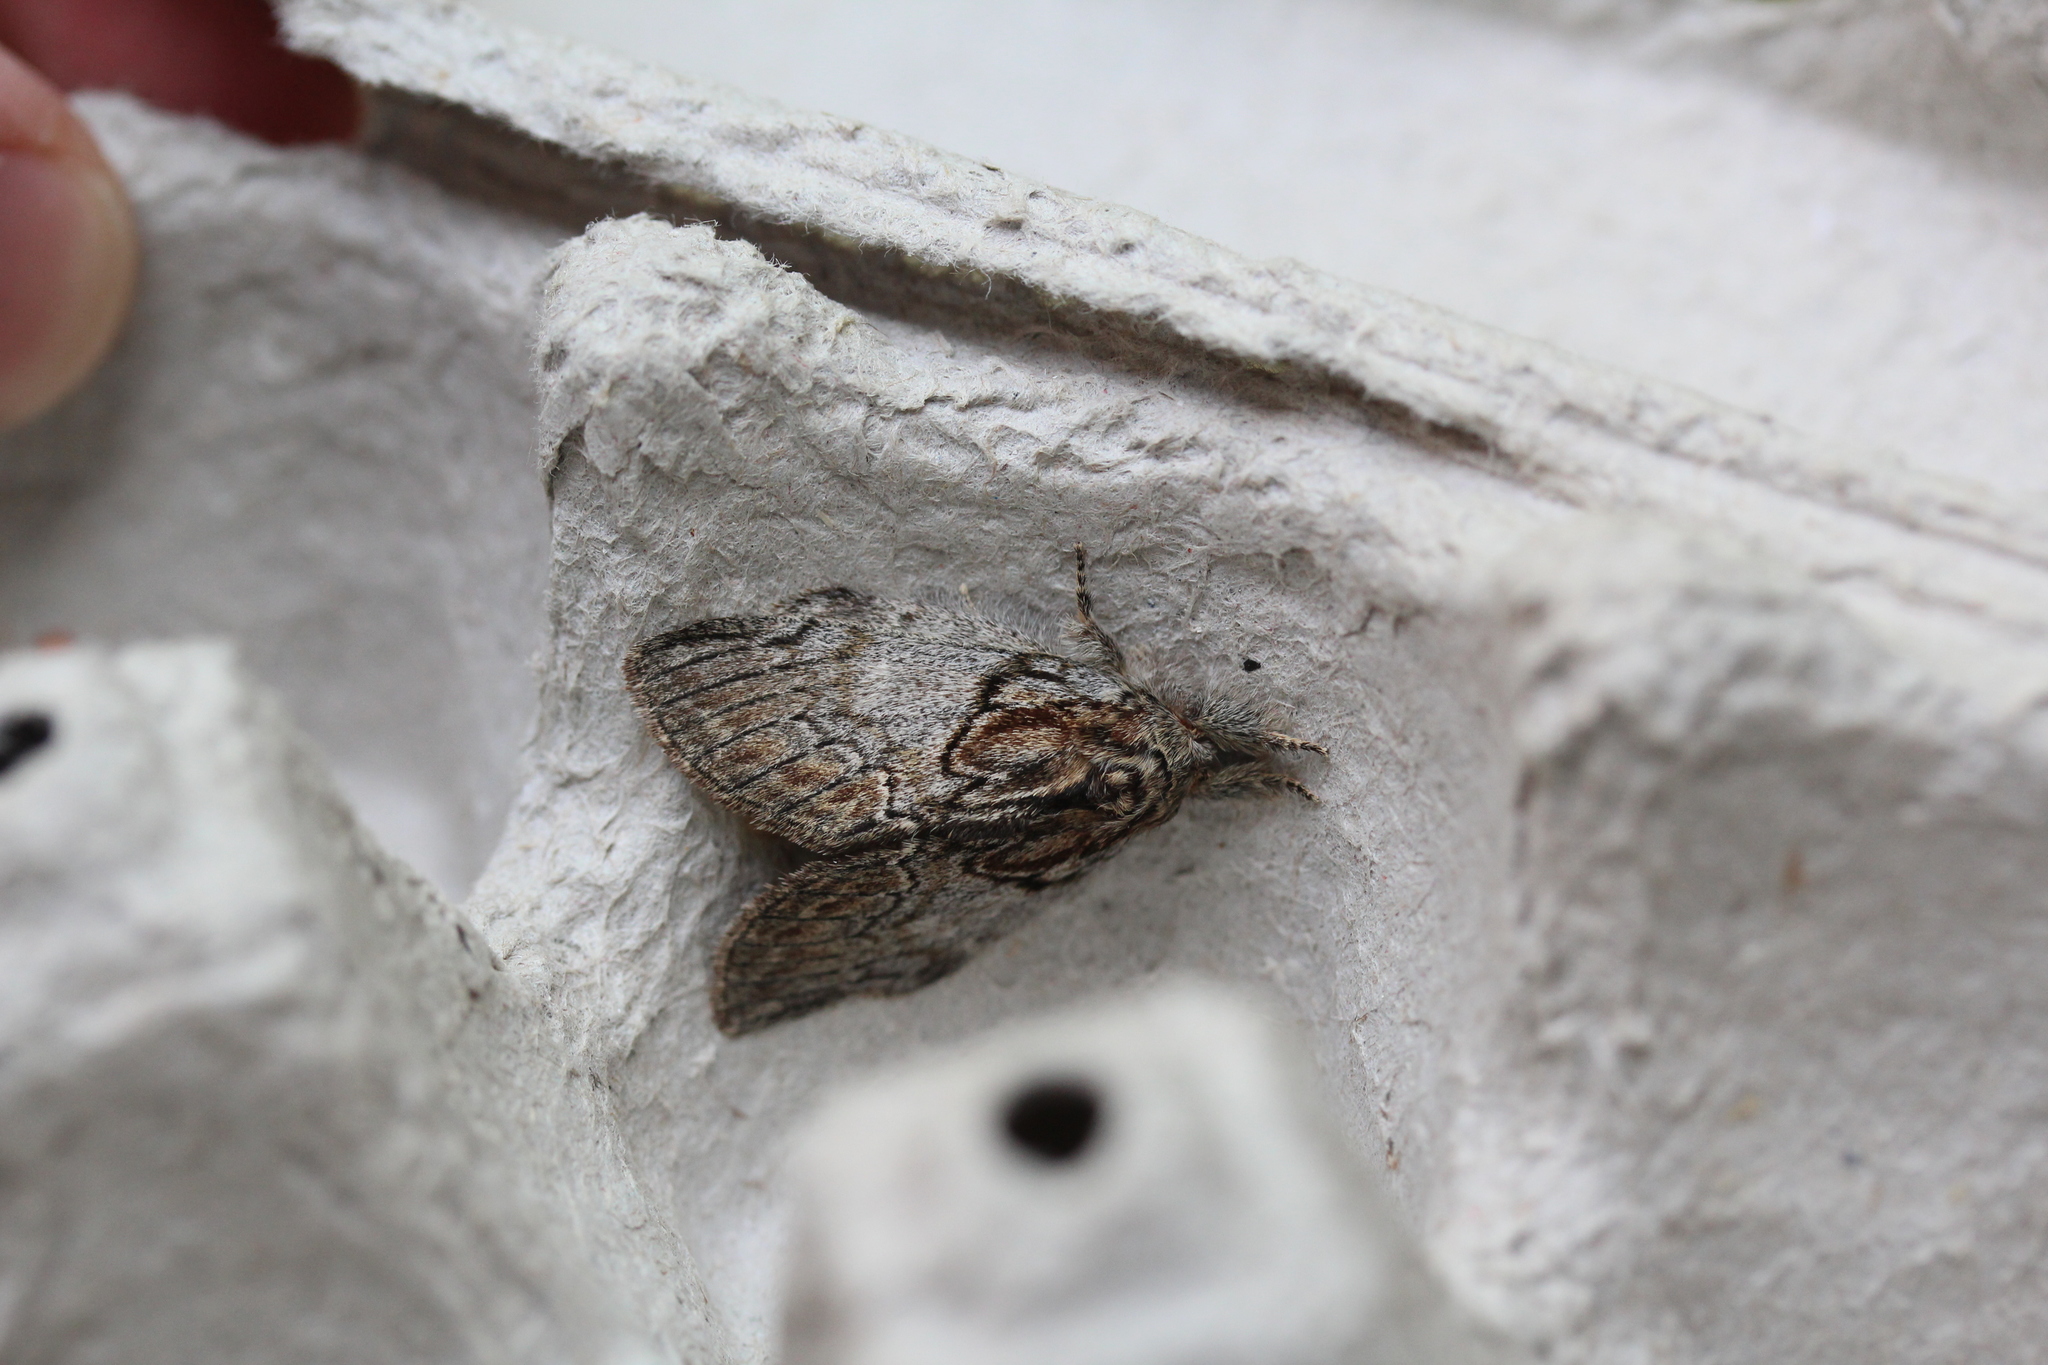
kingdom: Animalia
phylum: Arthropoda
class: Insecta
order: Lepidoptera
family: Notodontidae
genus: Peridea
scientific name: Peridea basitriens
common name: Oval-based prominent
